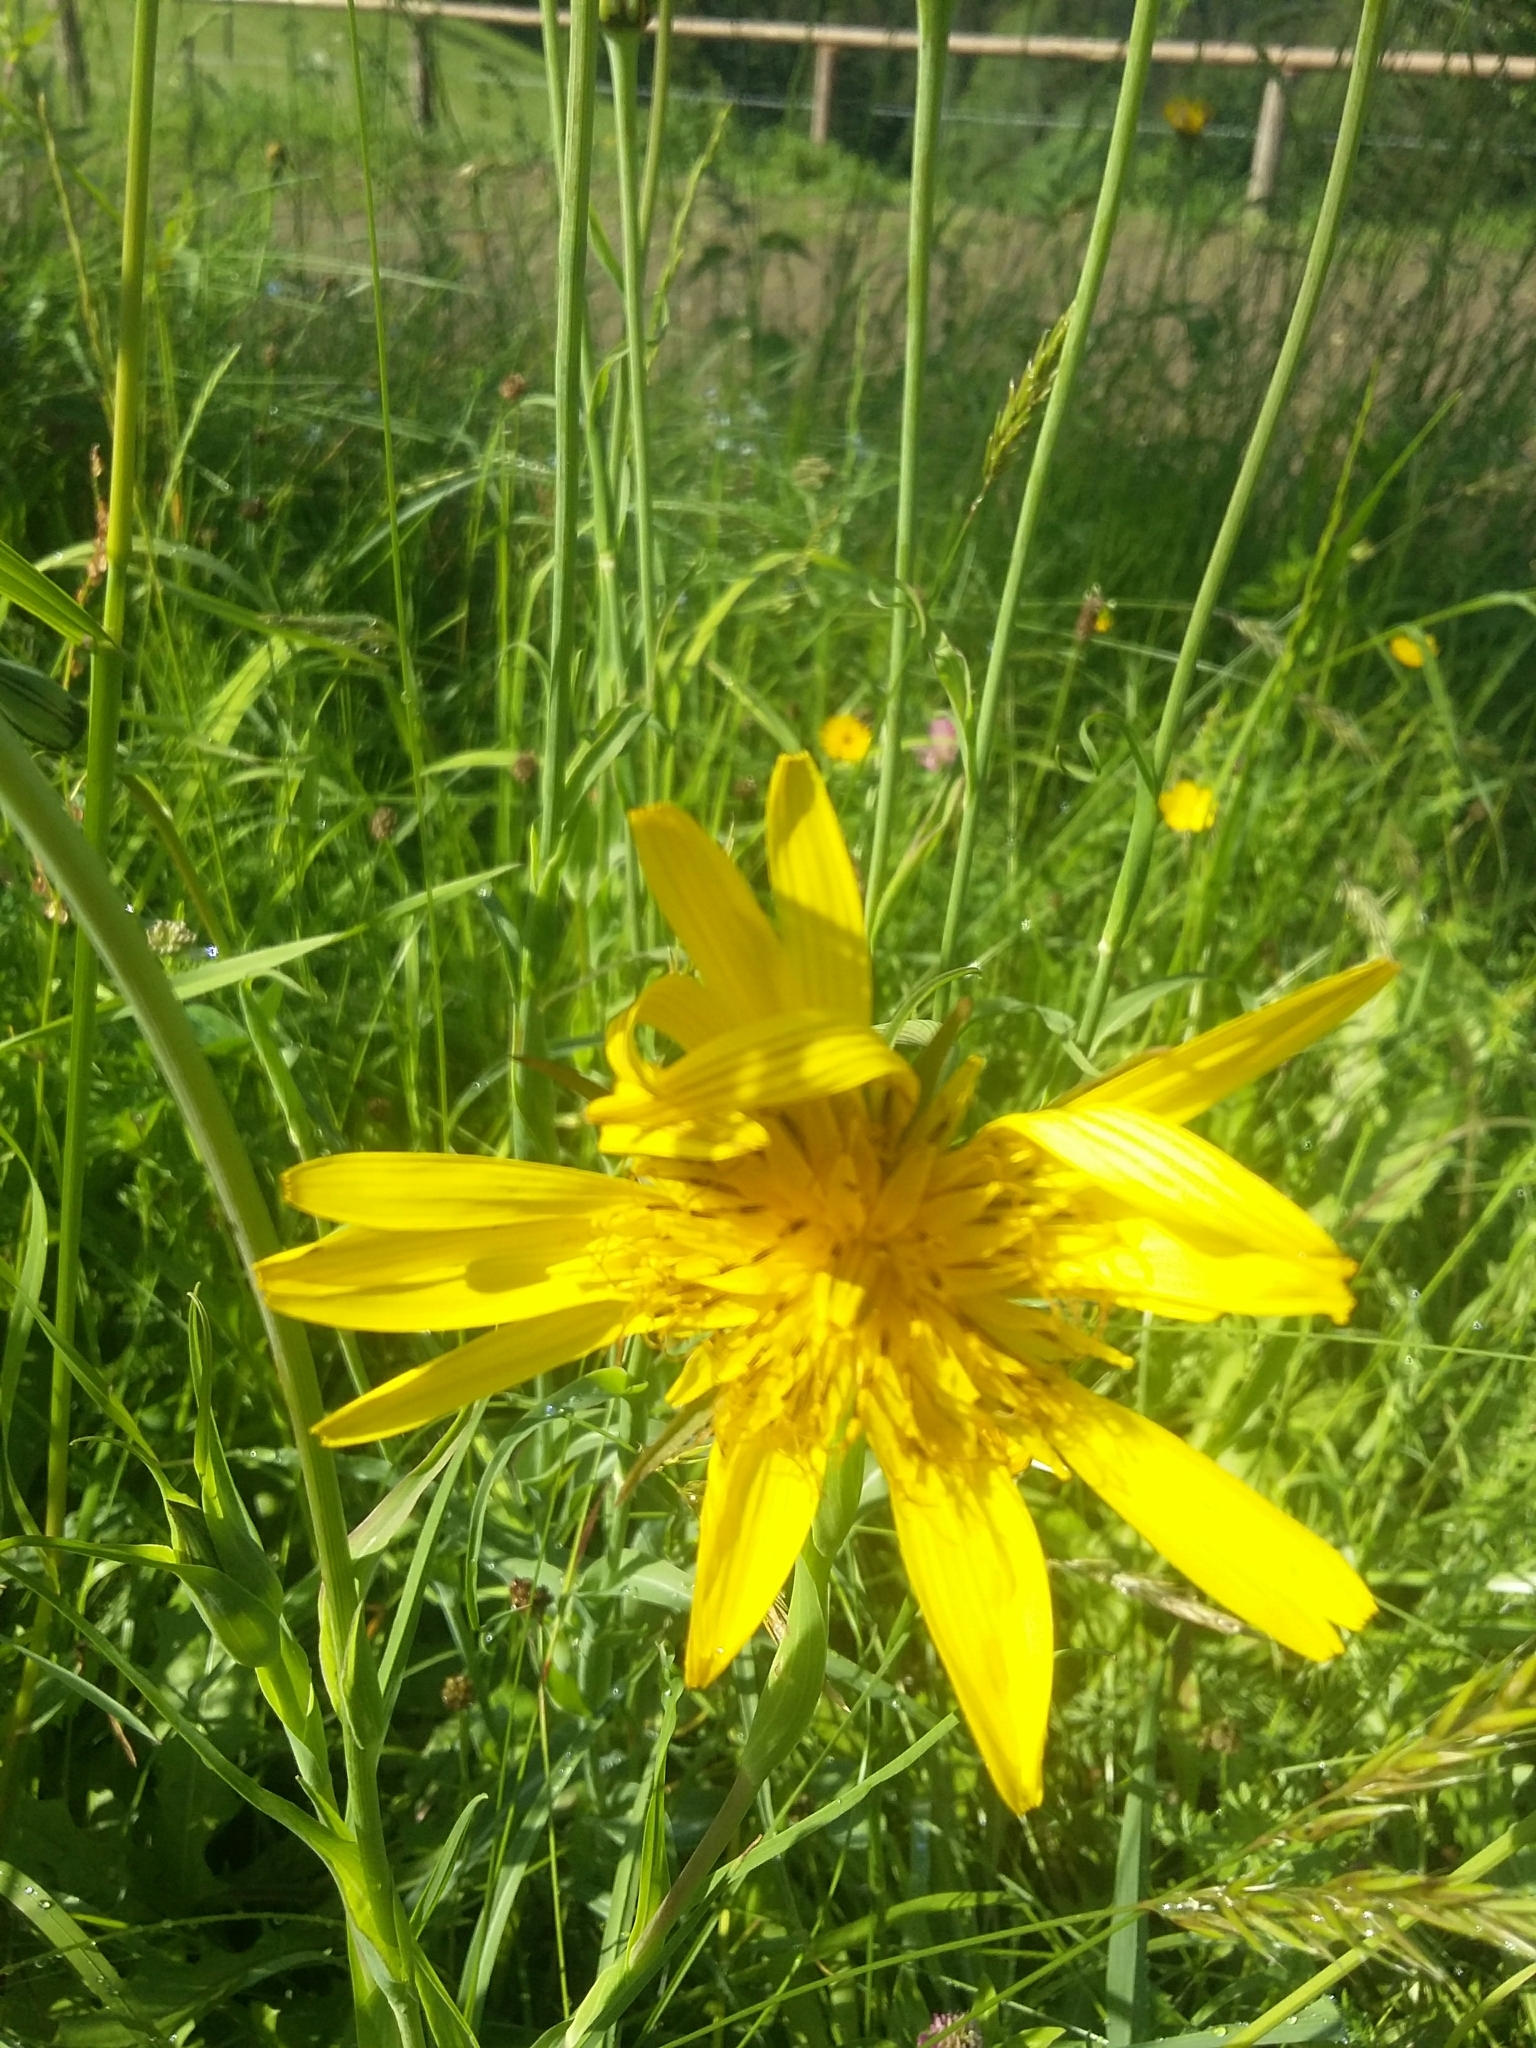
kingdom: Plantae
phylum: Tracheophyta
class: Magnoliopsida
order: Asterales
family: Asteraceae
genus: Tragopogon
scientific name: Tragopogon orientalis
